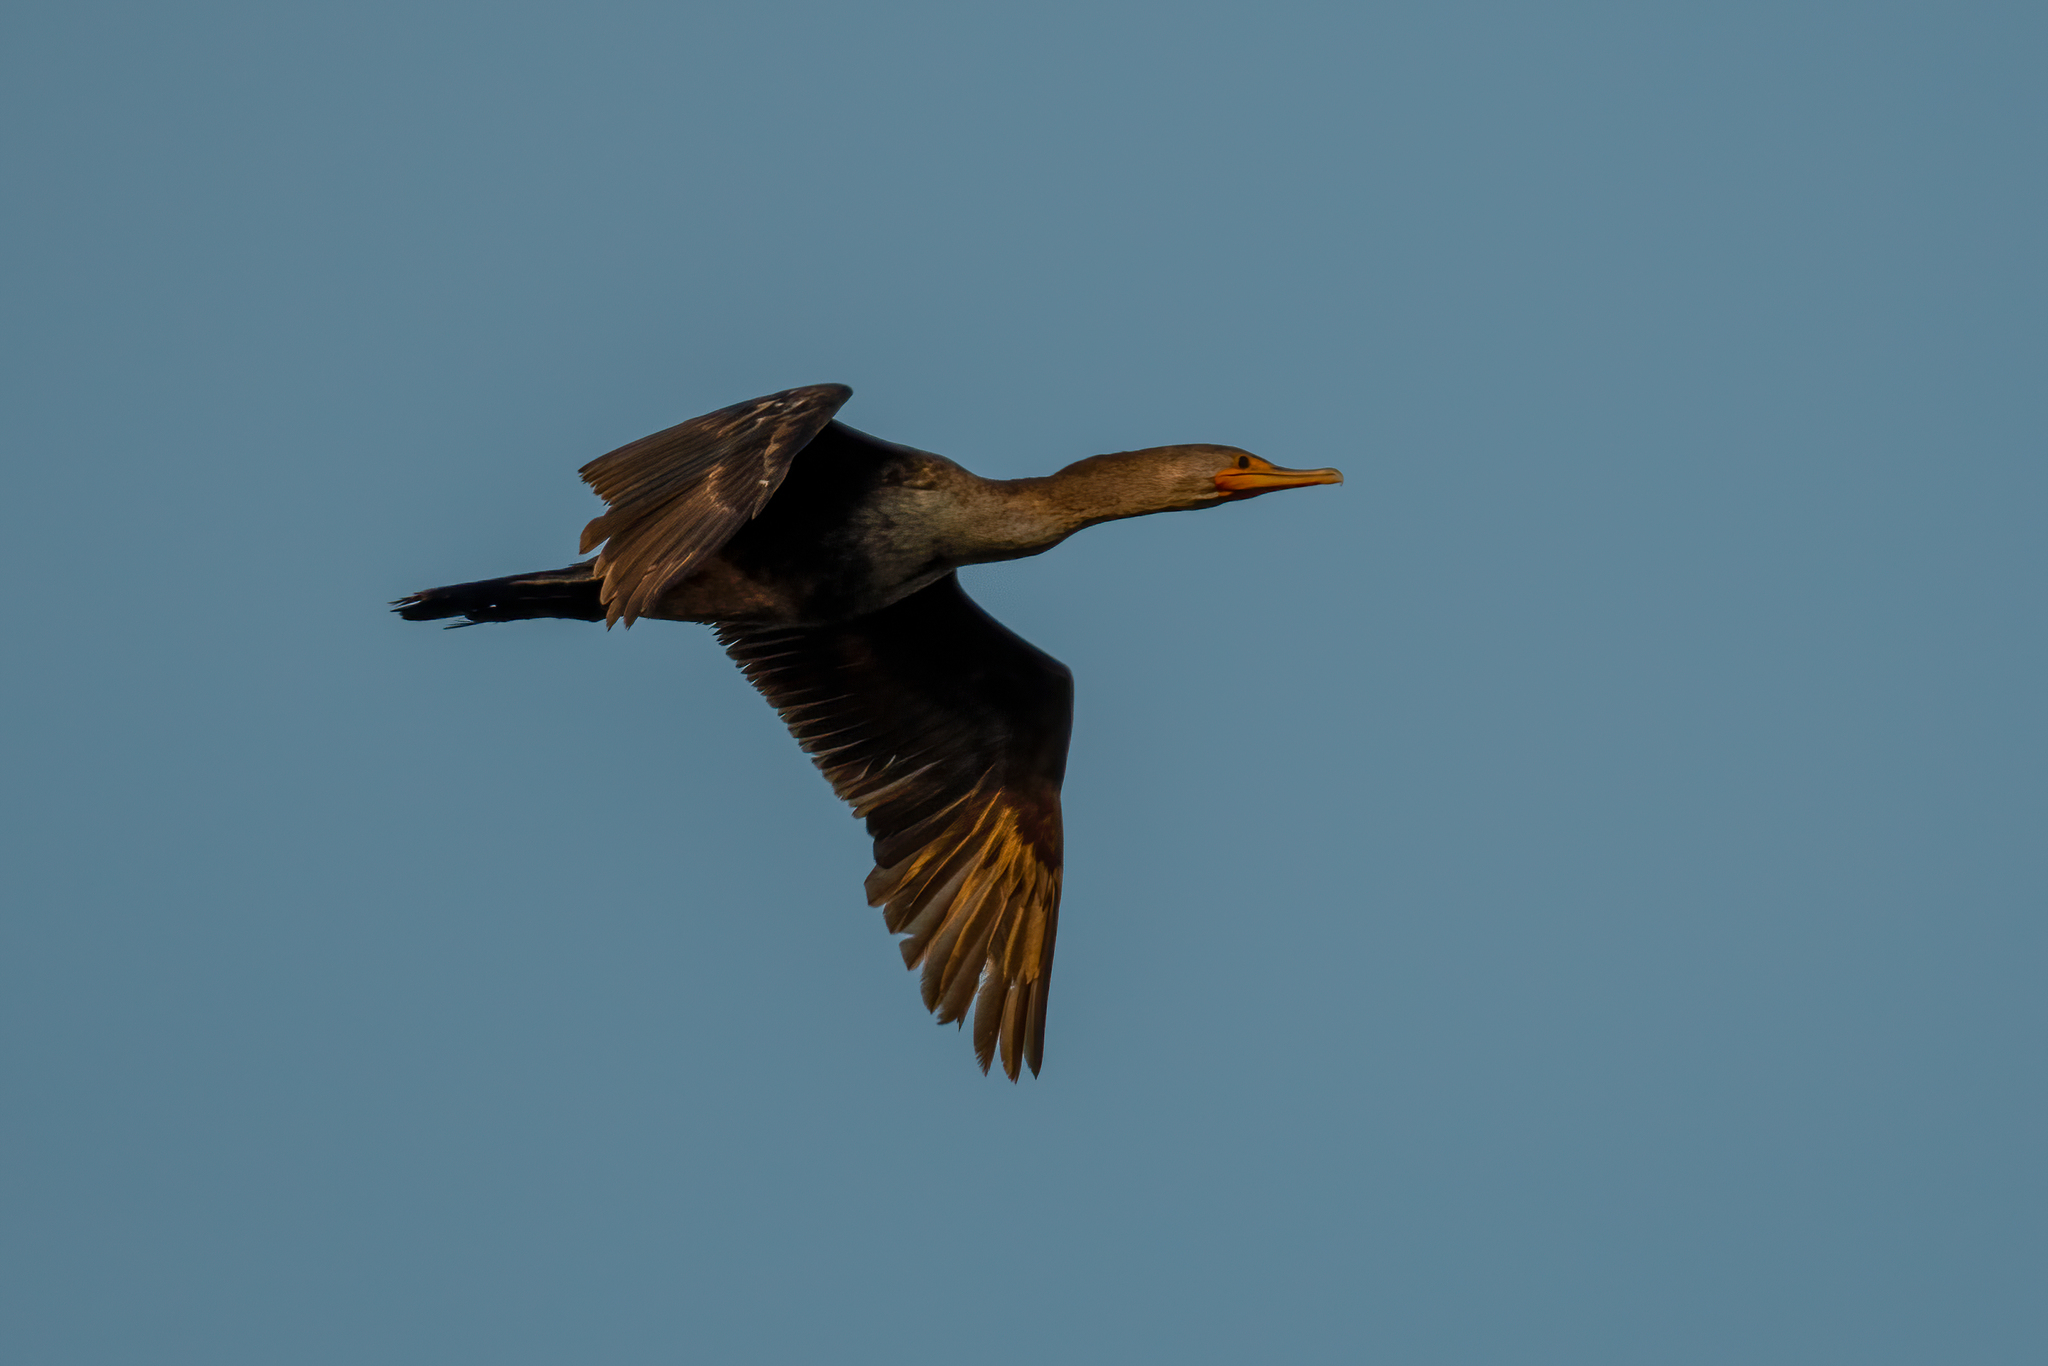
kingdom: Animalia
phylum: Chordata
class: Aves
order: Suliformes
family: Phalacrocoracidae
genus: Phalacrocorax
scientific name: Phalacrocorax auritus
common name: Double-crested cormorant
